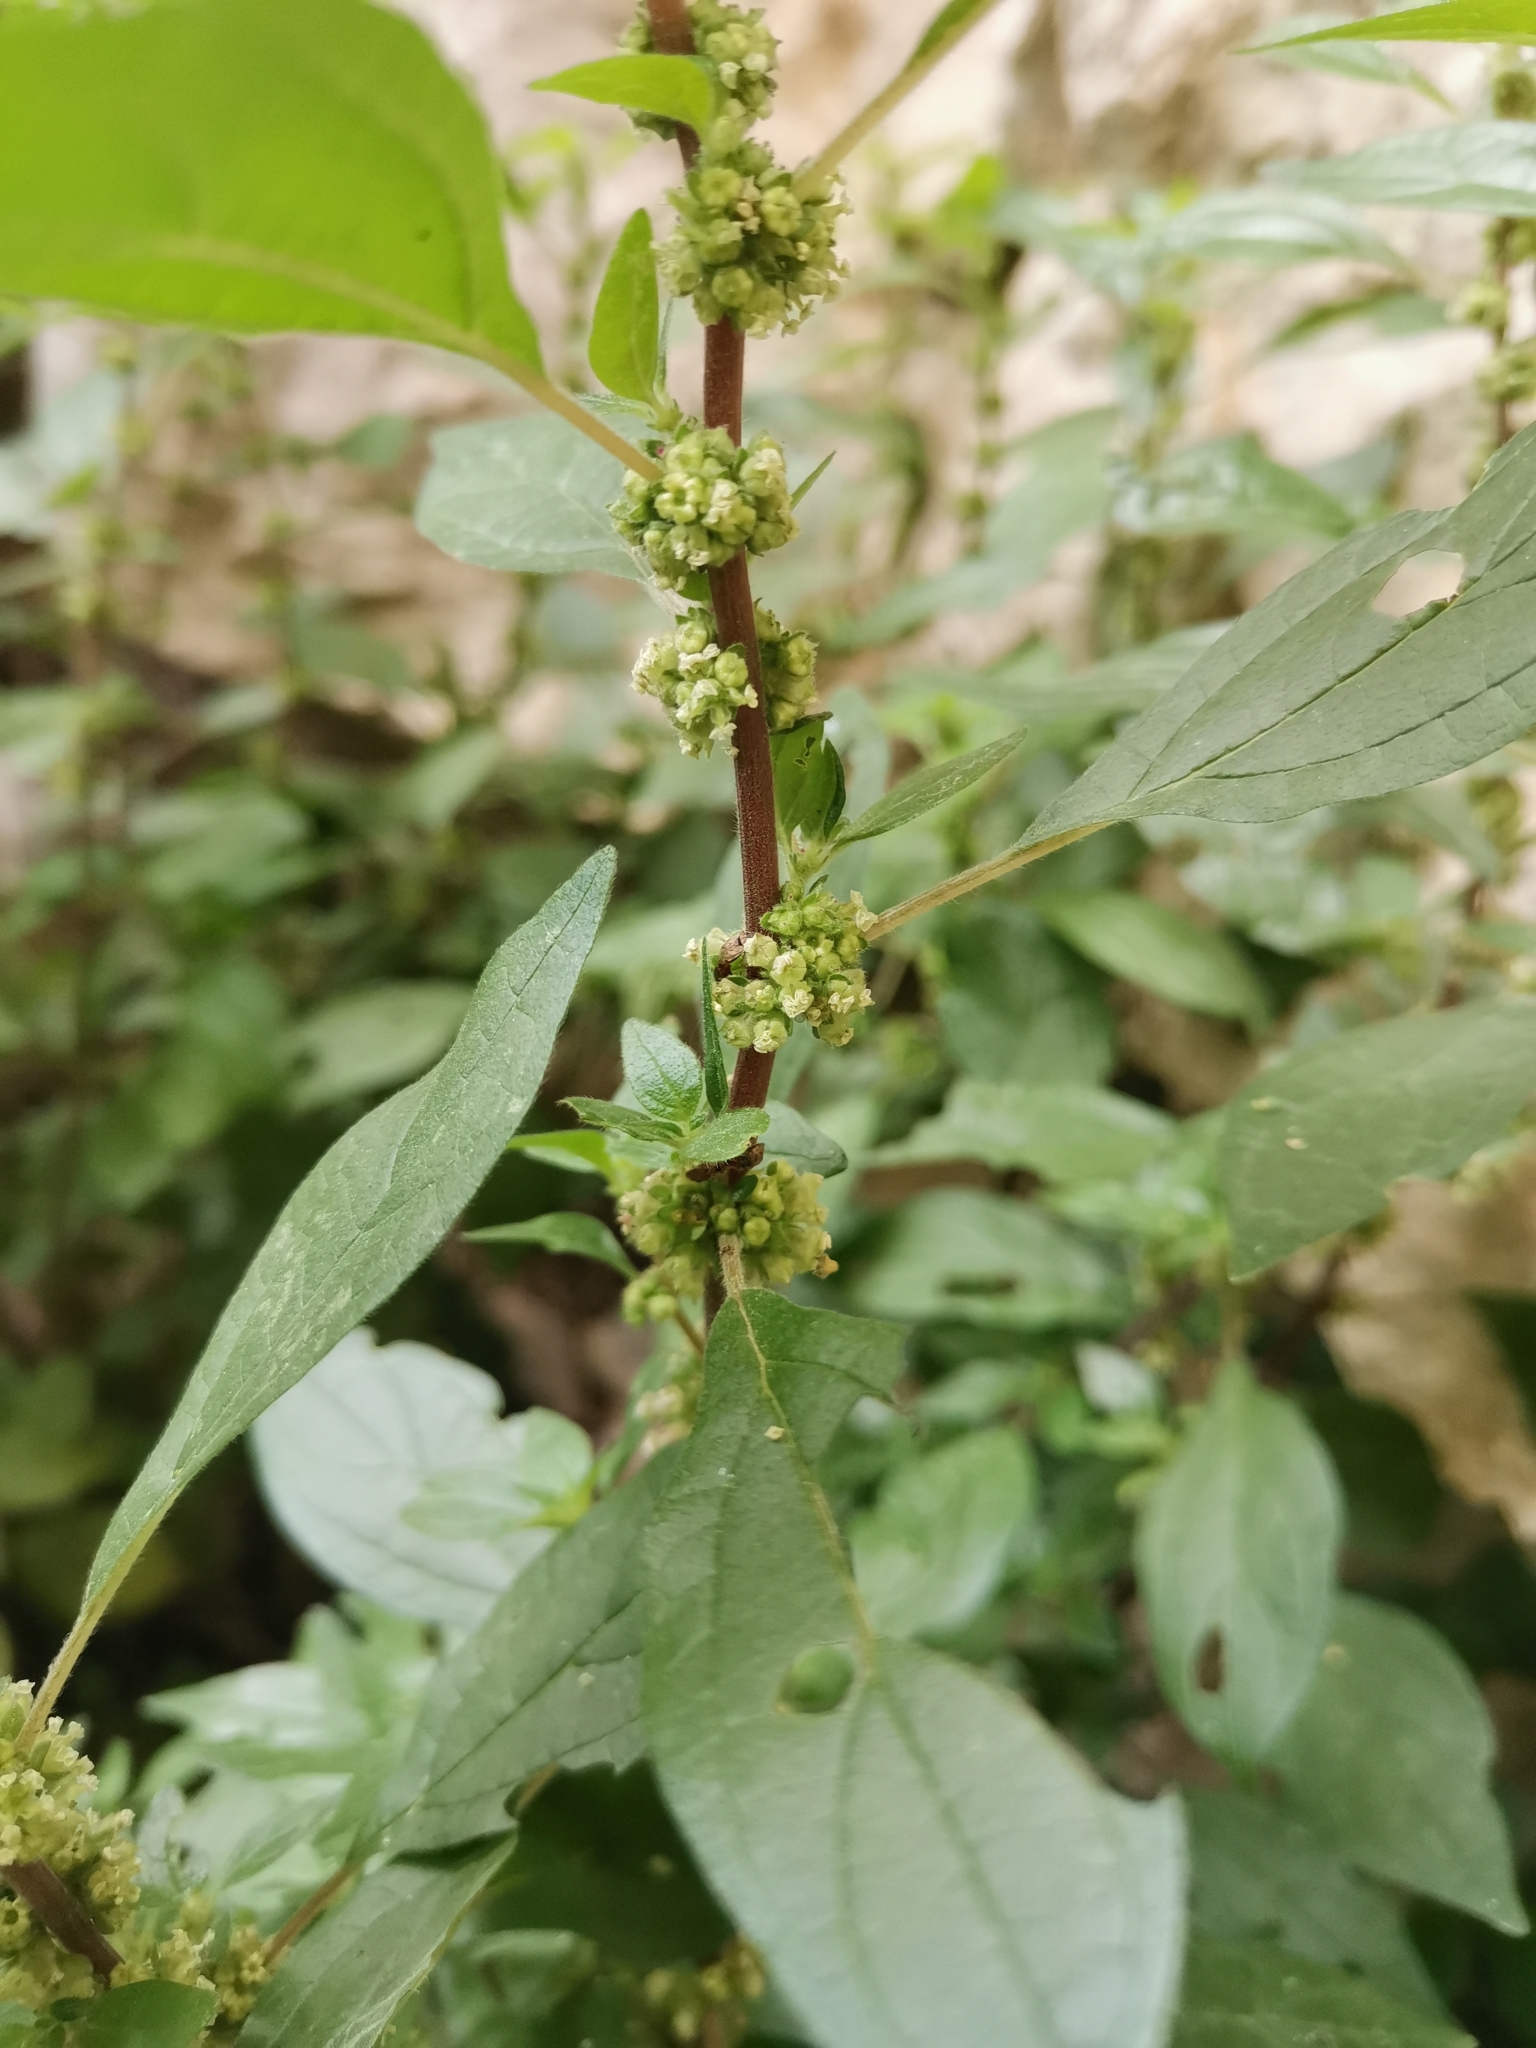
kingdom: Plantae
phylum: Tracheophyta
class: Magnoliopsida
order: Rosales
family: Urticaceae
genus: Parietaria
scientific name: Parietaria officinalis
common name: Eastern pellitory-of-the-wall
